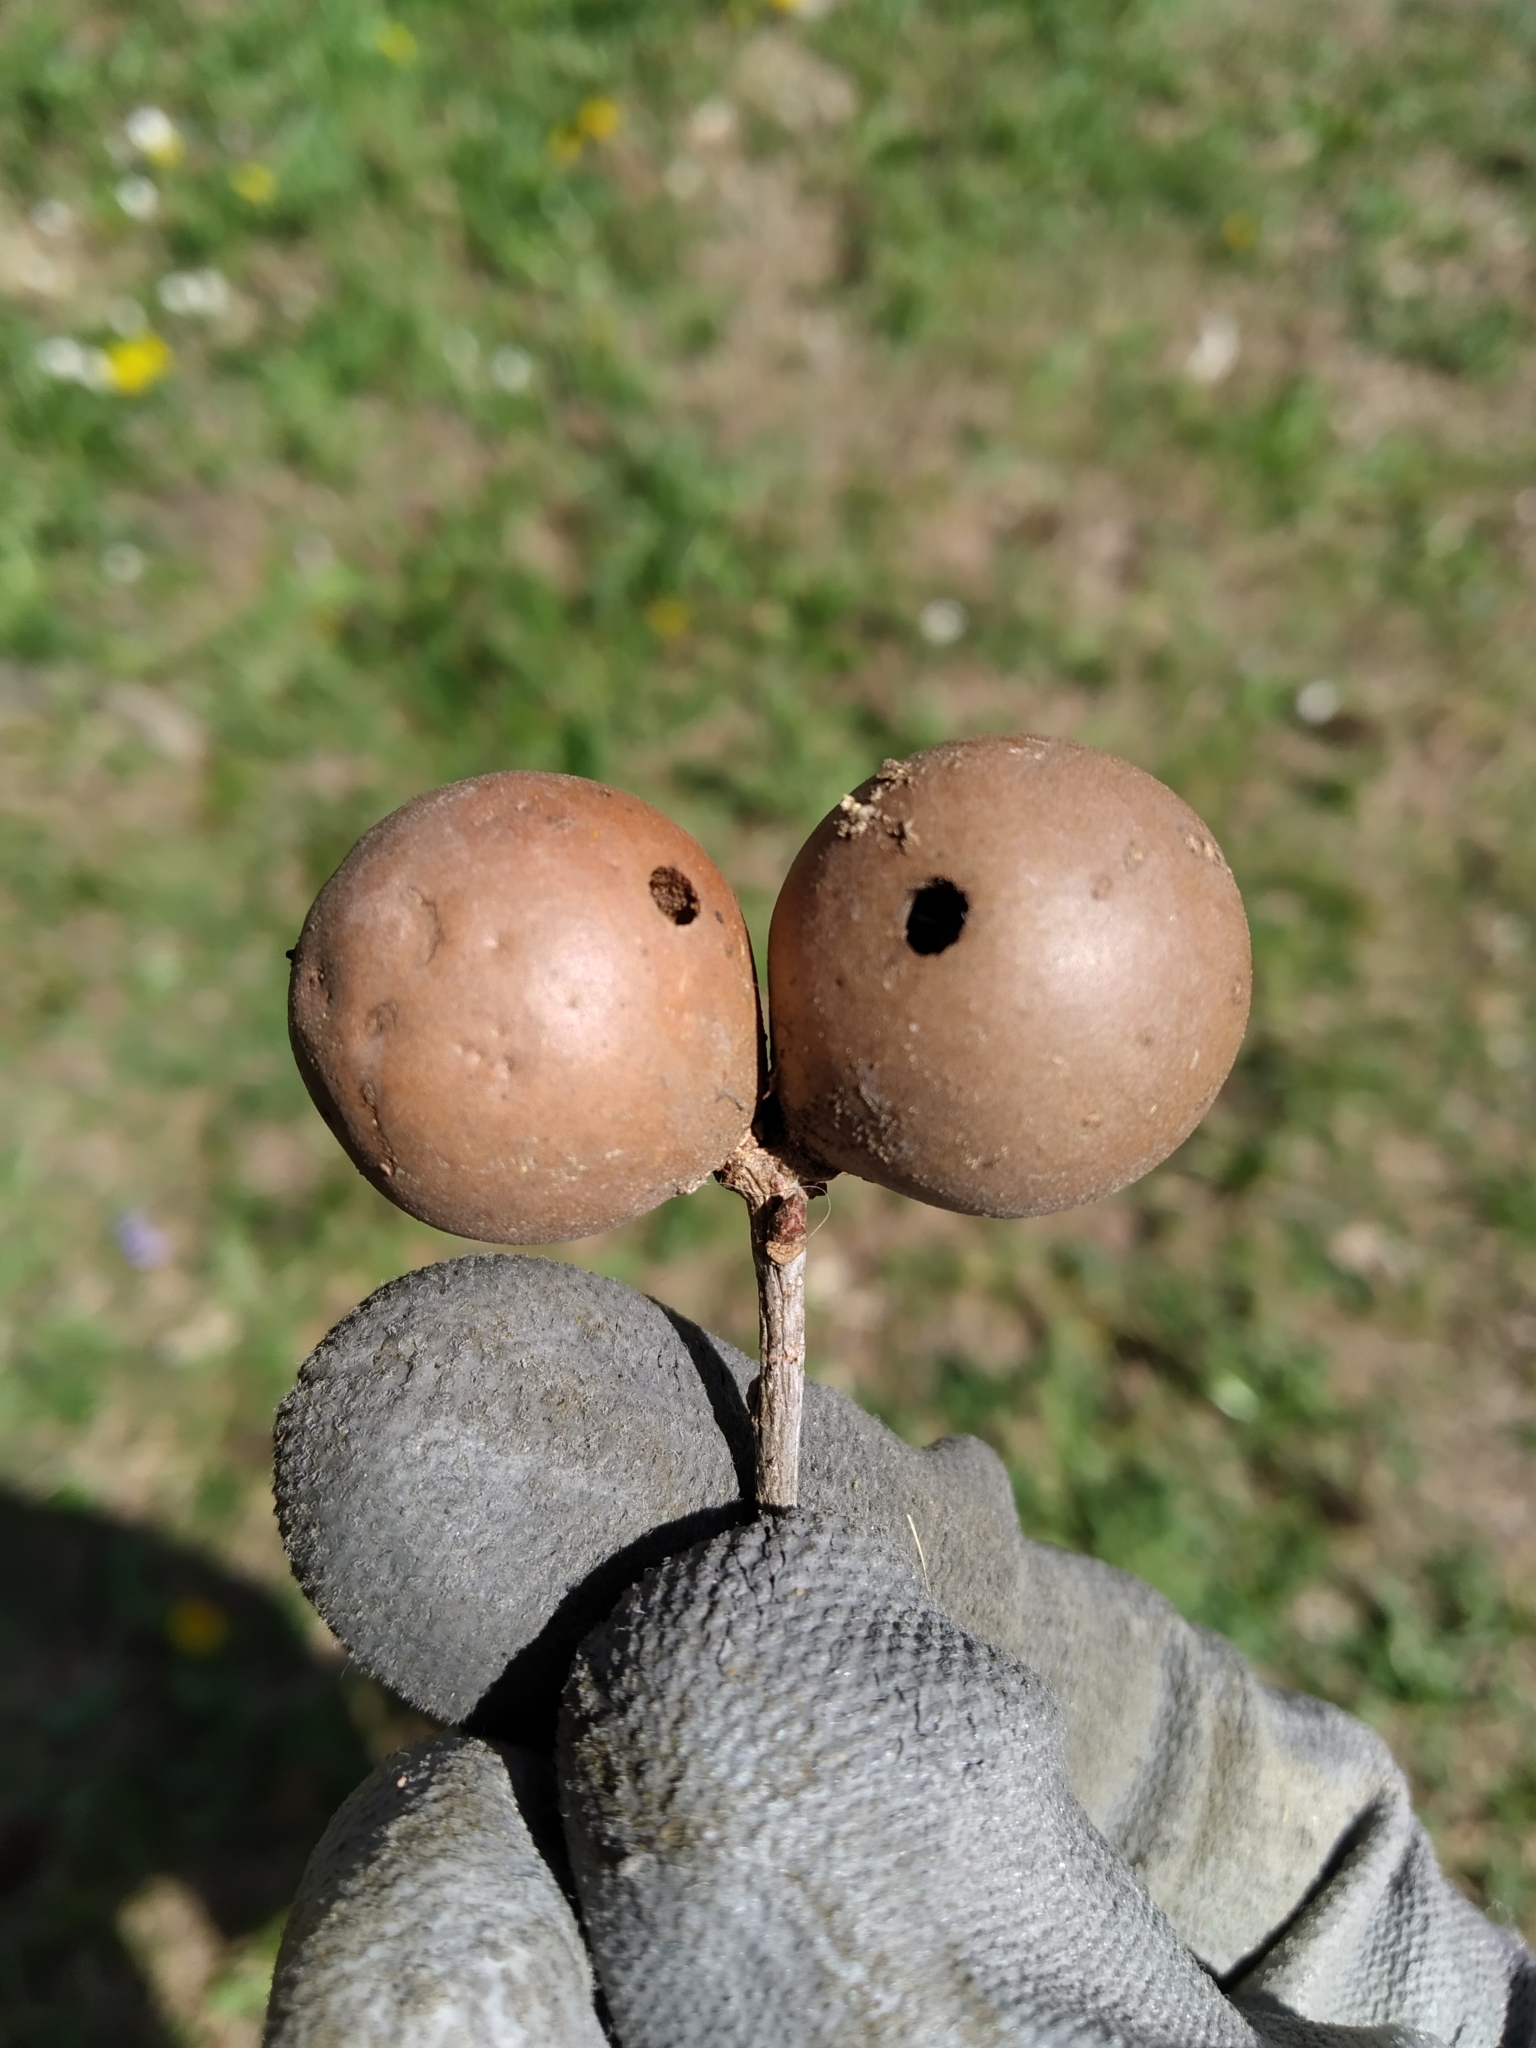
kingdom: Animalia
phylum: Arthropoda
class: Insecta
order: Hymenoptera
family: Cynipidae
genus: Andricus
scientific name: Andricus kollari
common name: Marble gall
